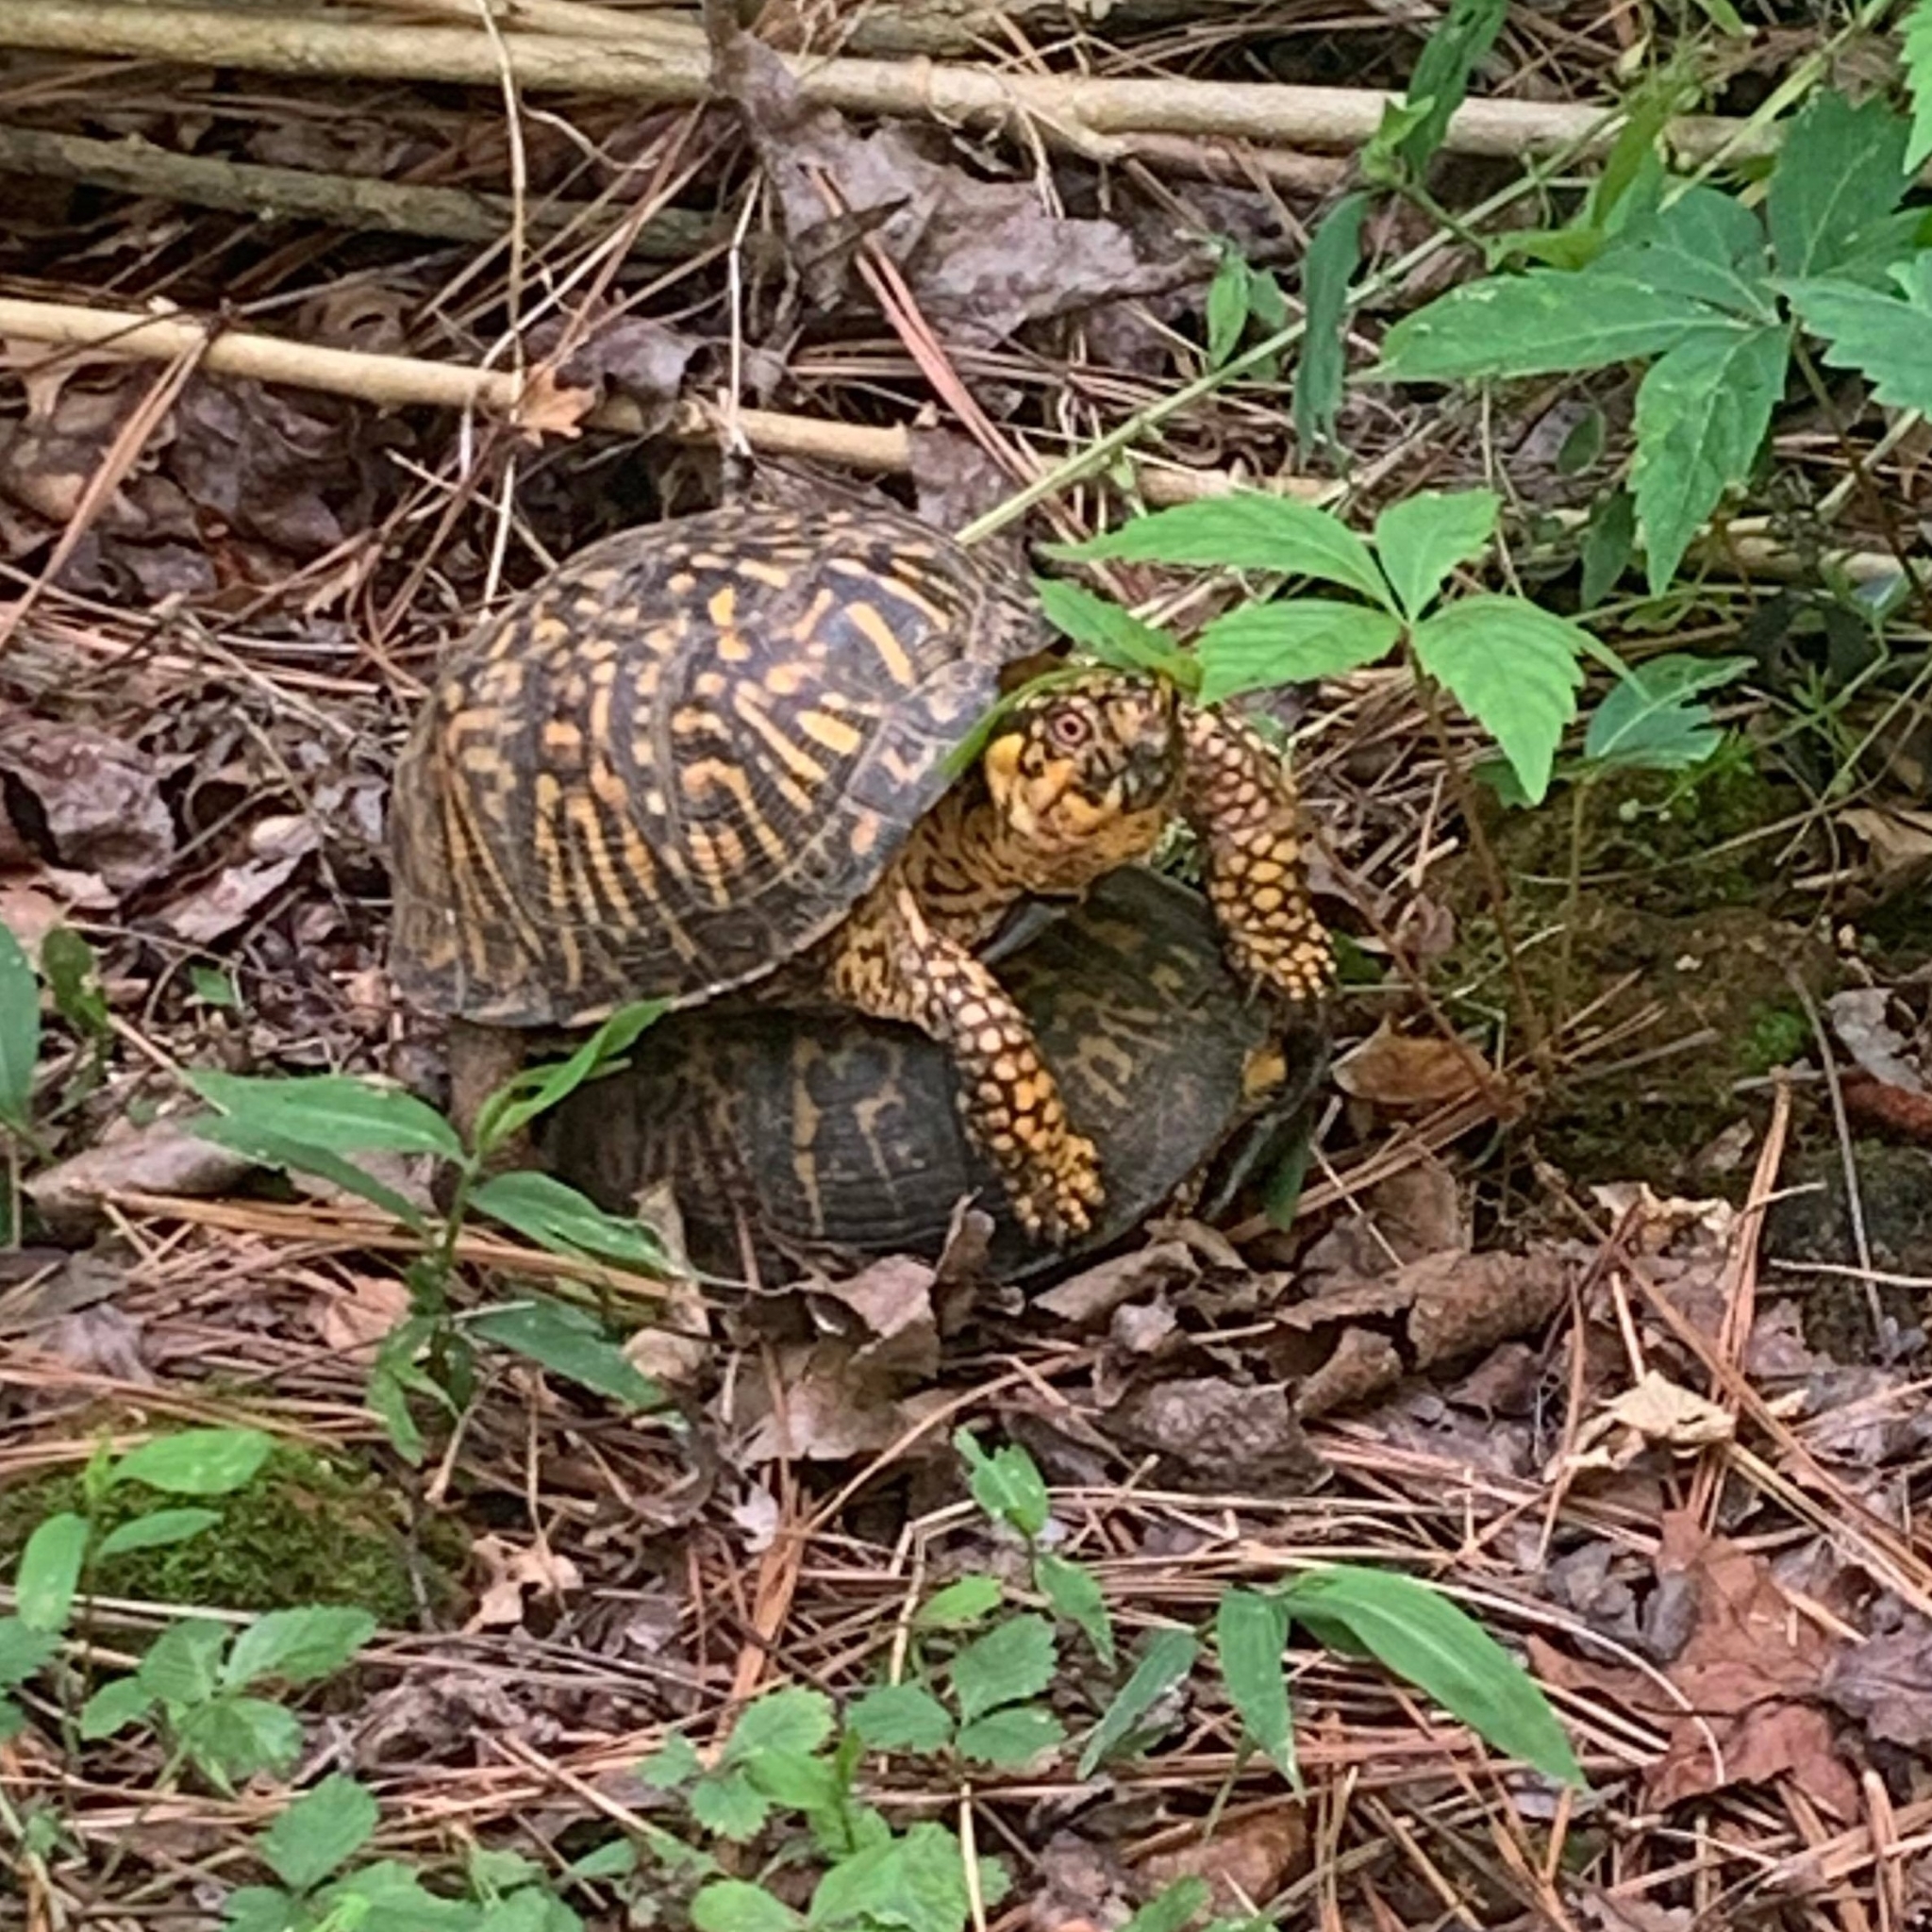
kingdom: Animalia
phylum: Chordata
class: Testudines
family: Emydidae
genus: Terrapene
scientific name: Terrapene carolina
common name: Common box turtle
